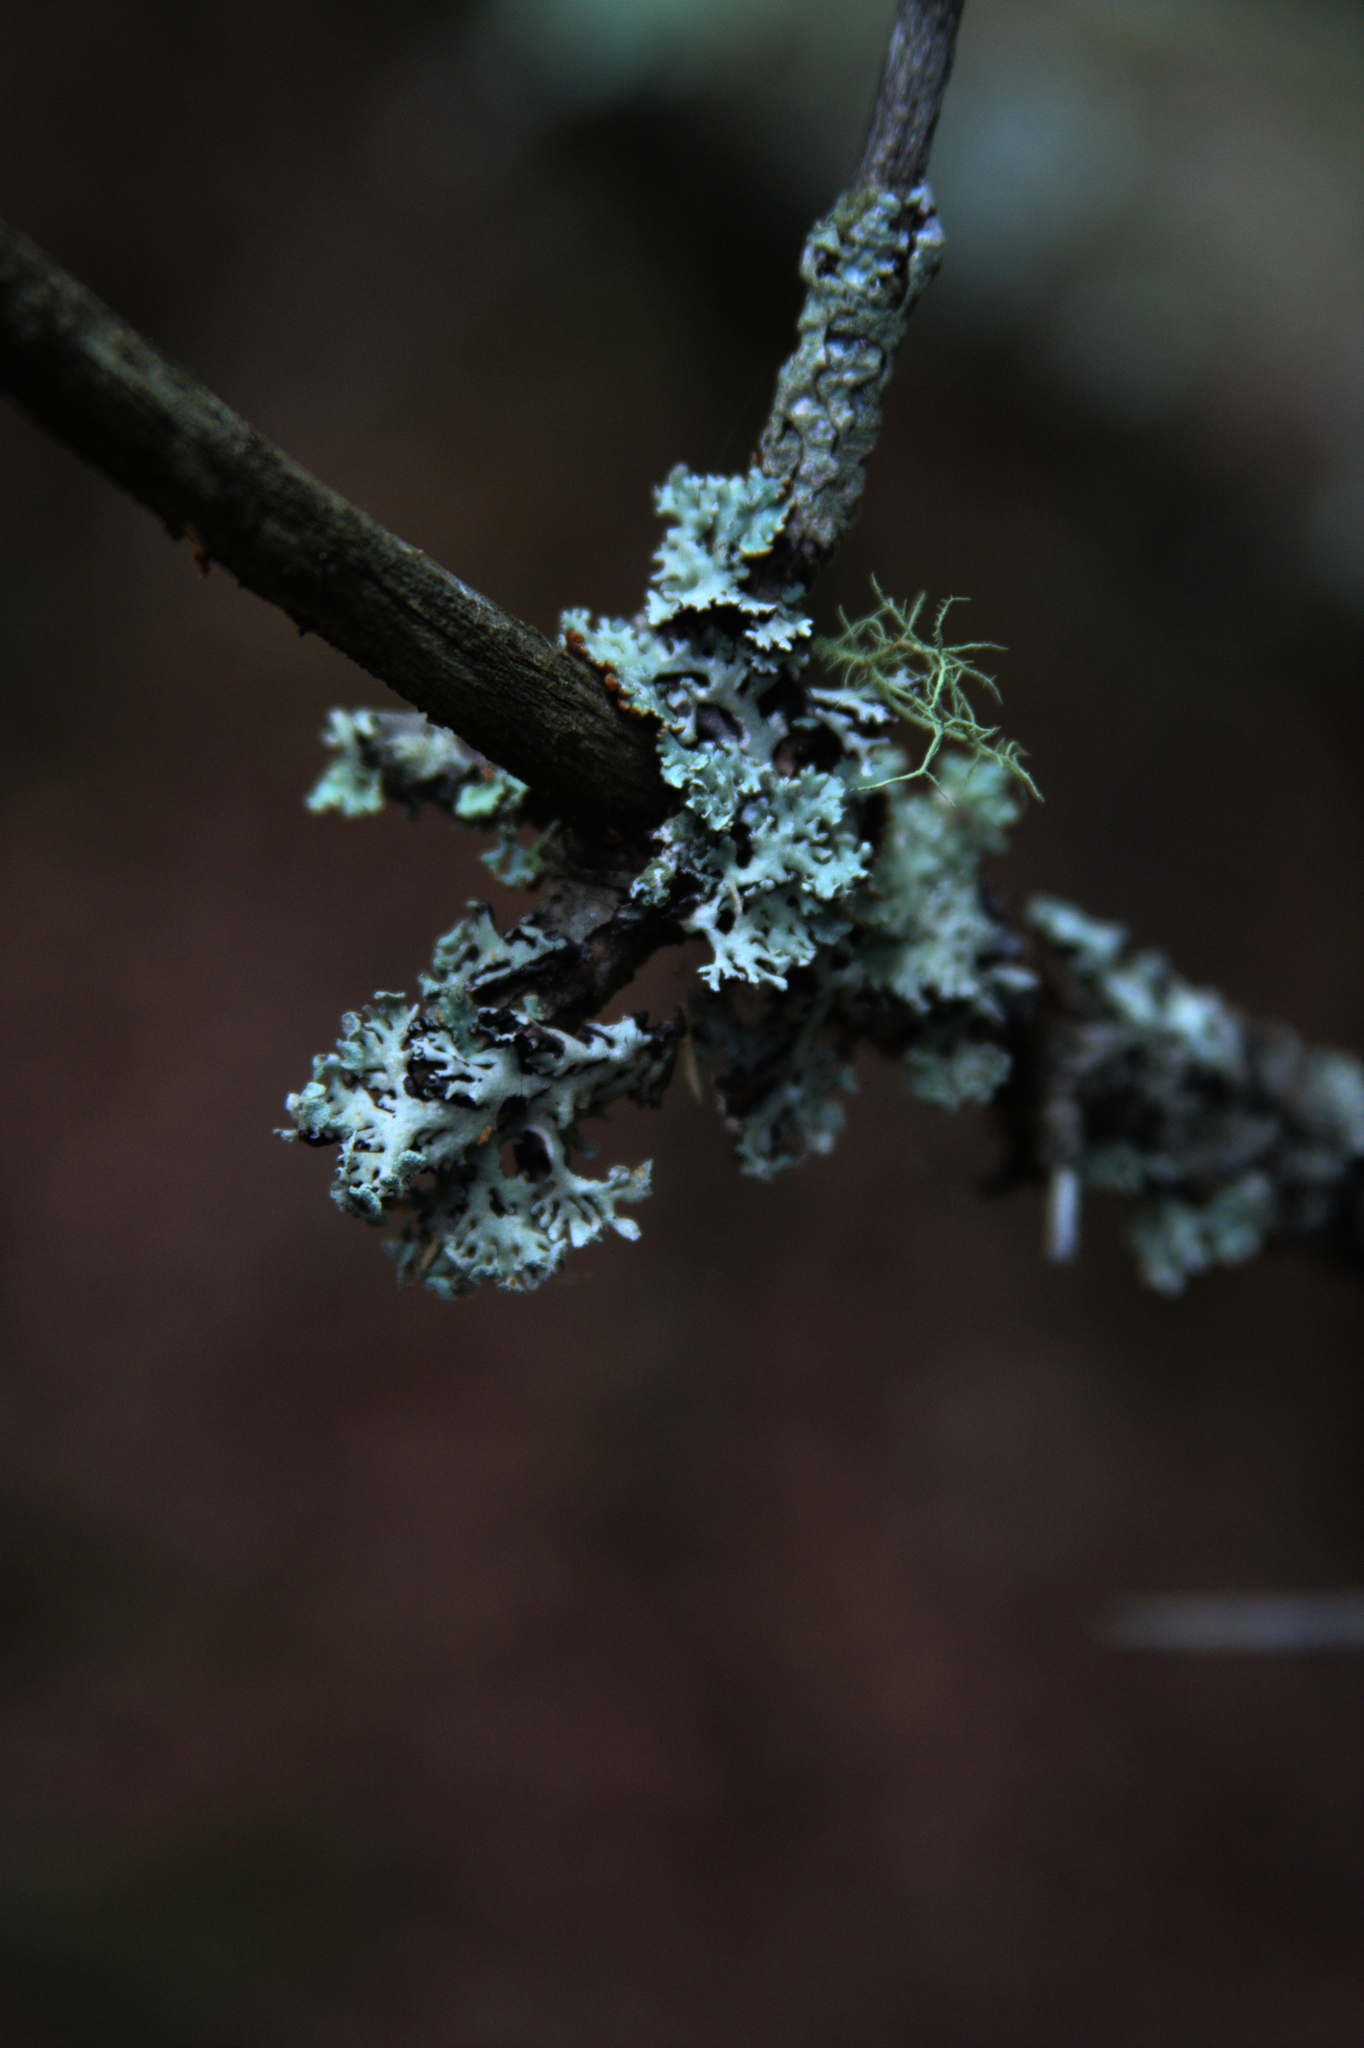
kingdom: Fungi
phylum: Ascomycota
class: Lecanoromycetes
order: Lecanorales
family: Parmeliaceae
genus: Hypogymnia
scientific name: Hypogymnia physodes
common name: Dark crottle
